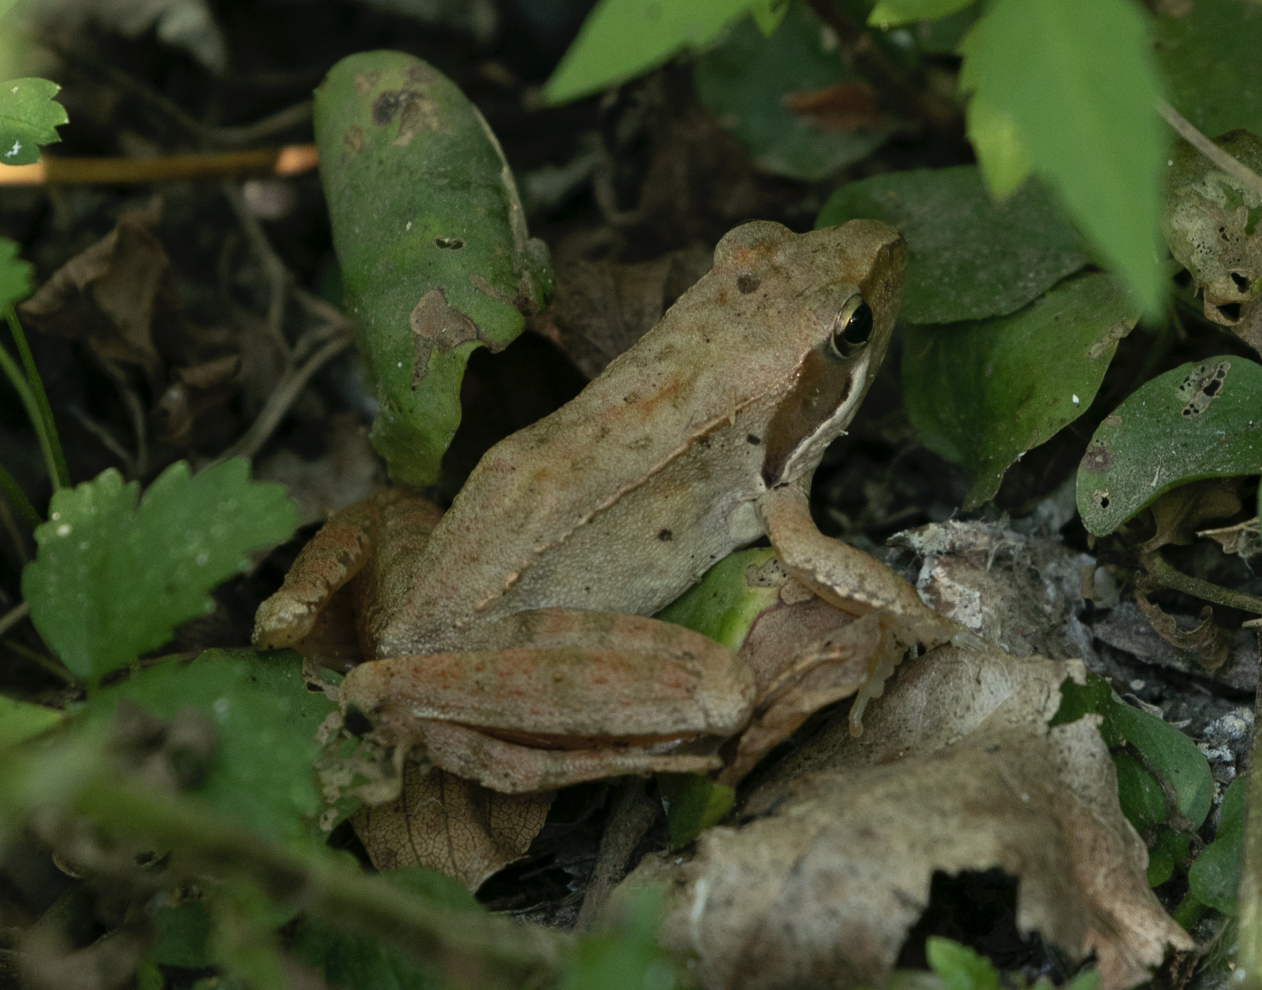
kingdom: Animalia
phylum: Chordata
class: Amphibia
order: Anura
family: Ranidae
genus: Rana
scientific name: Rana latastei
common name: Italian agile frog
